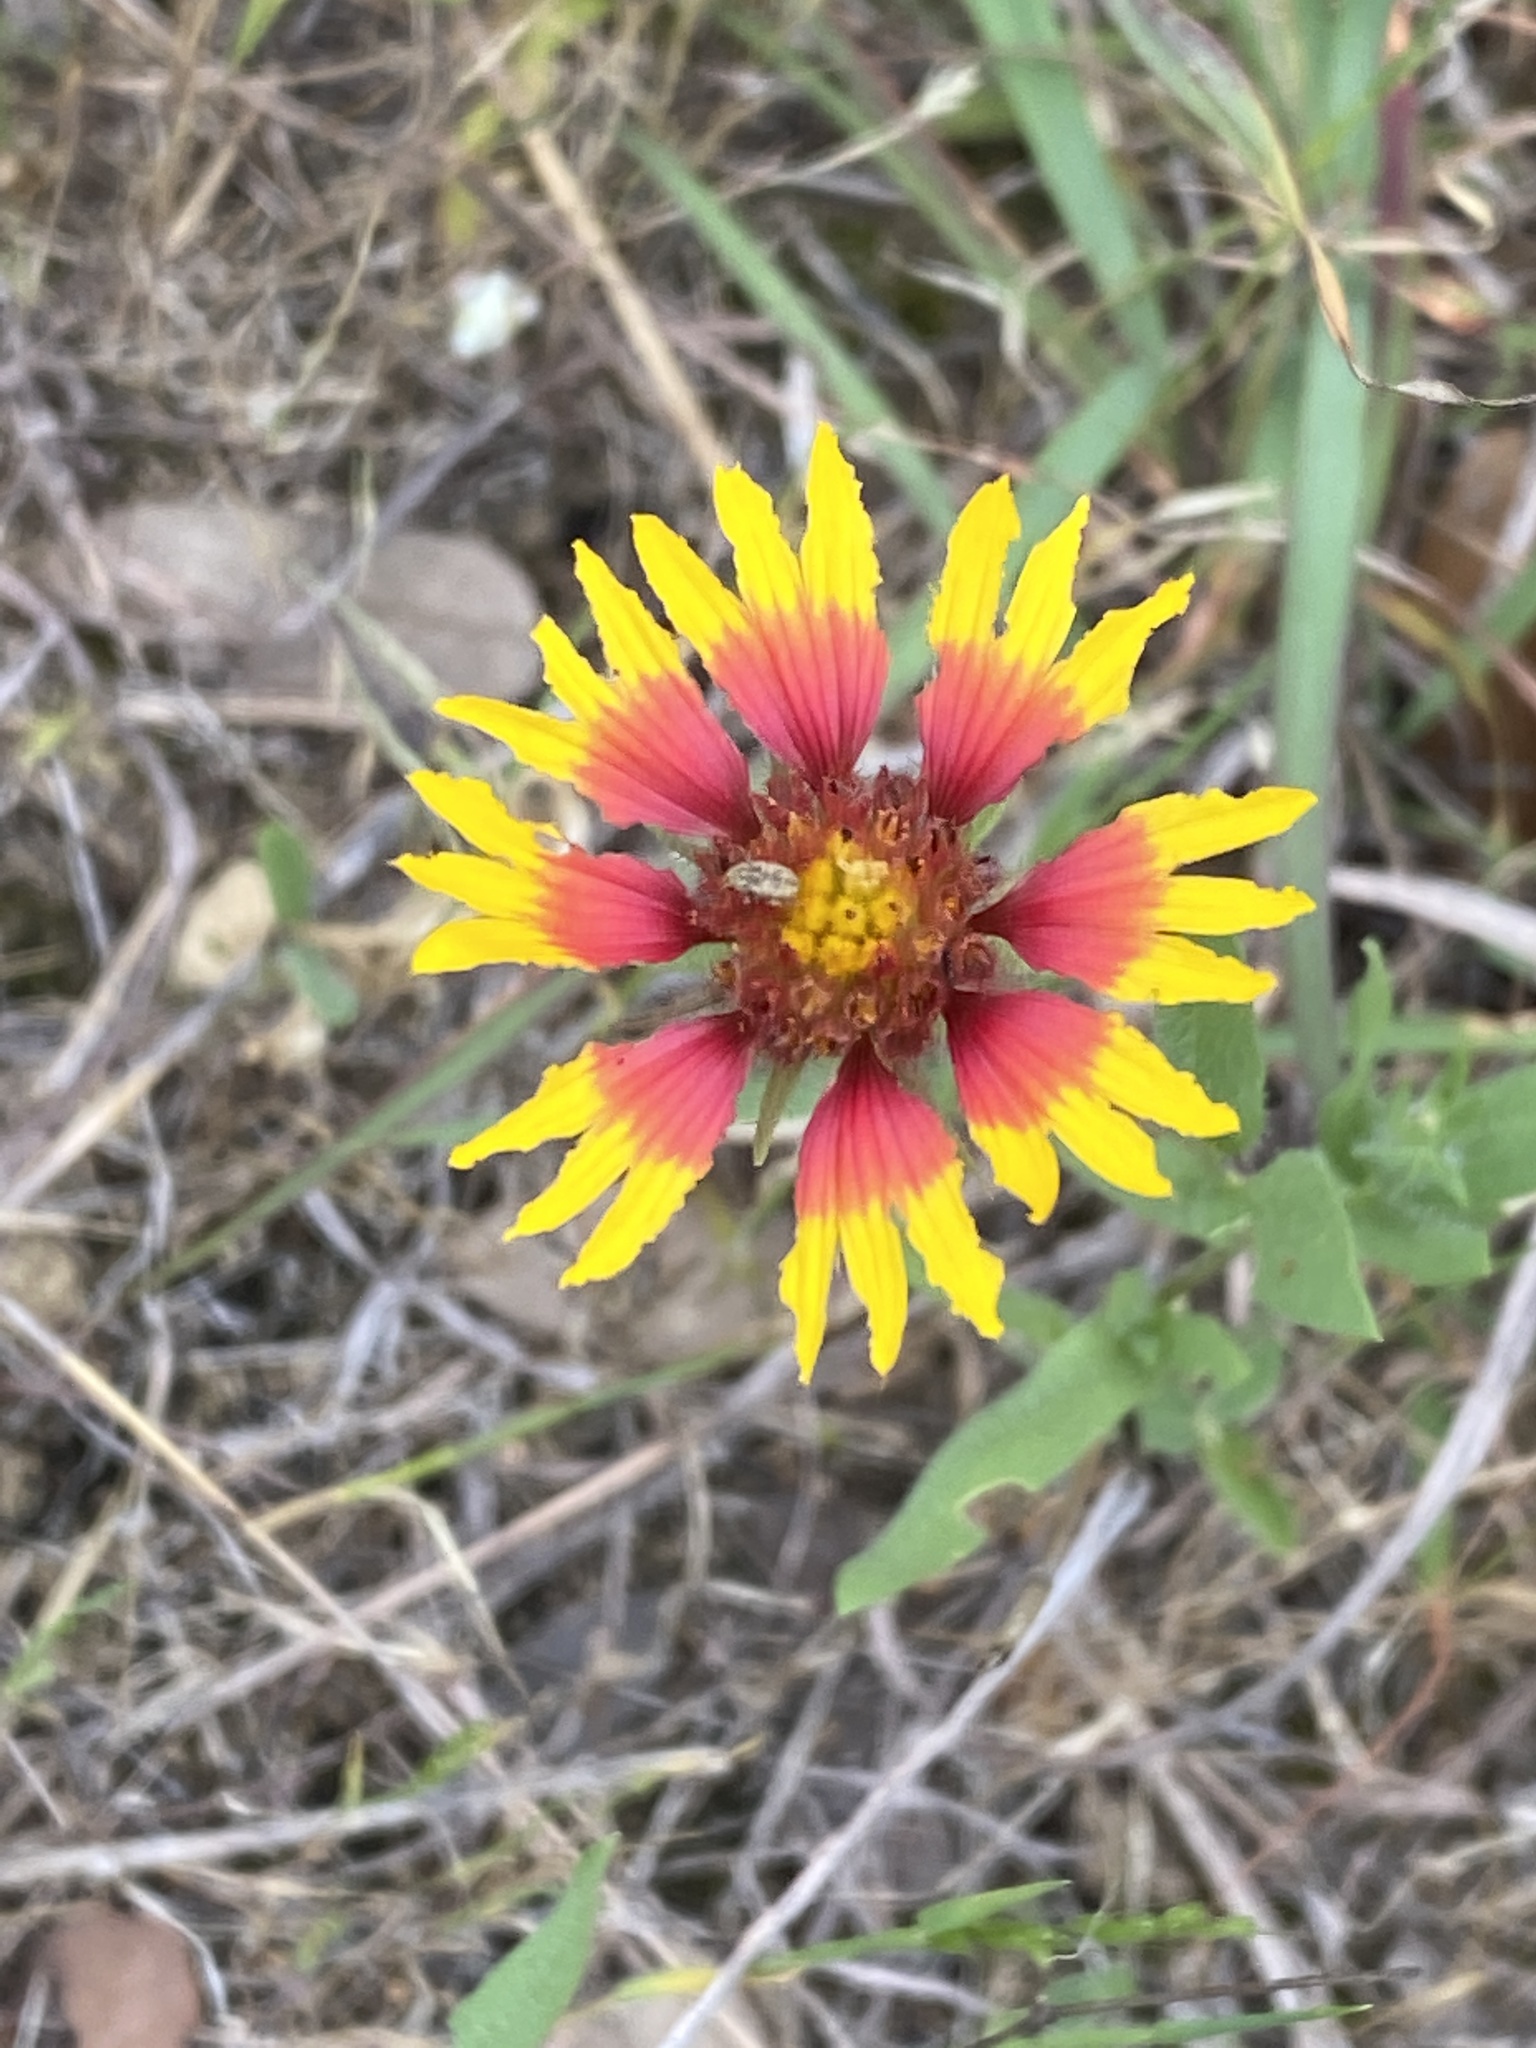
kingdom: Plantae
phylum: Tracheophyta
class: Magnoliopsida
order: Asterales
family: Asteraceae
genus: Gaillardia
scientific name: Gaillardia pulchella
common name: Firewheel
